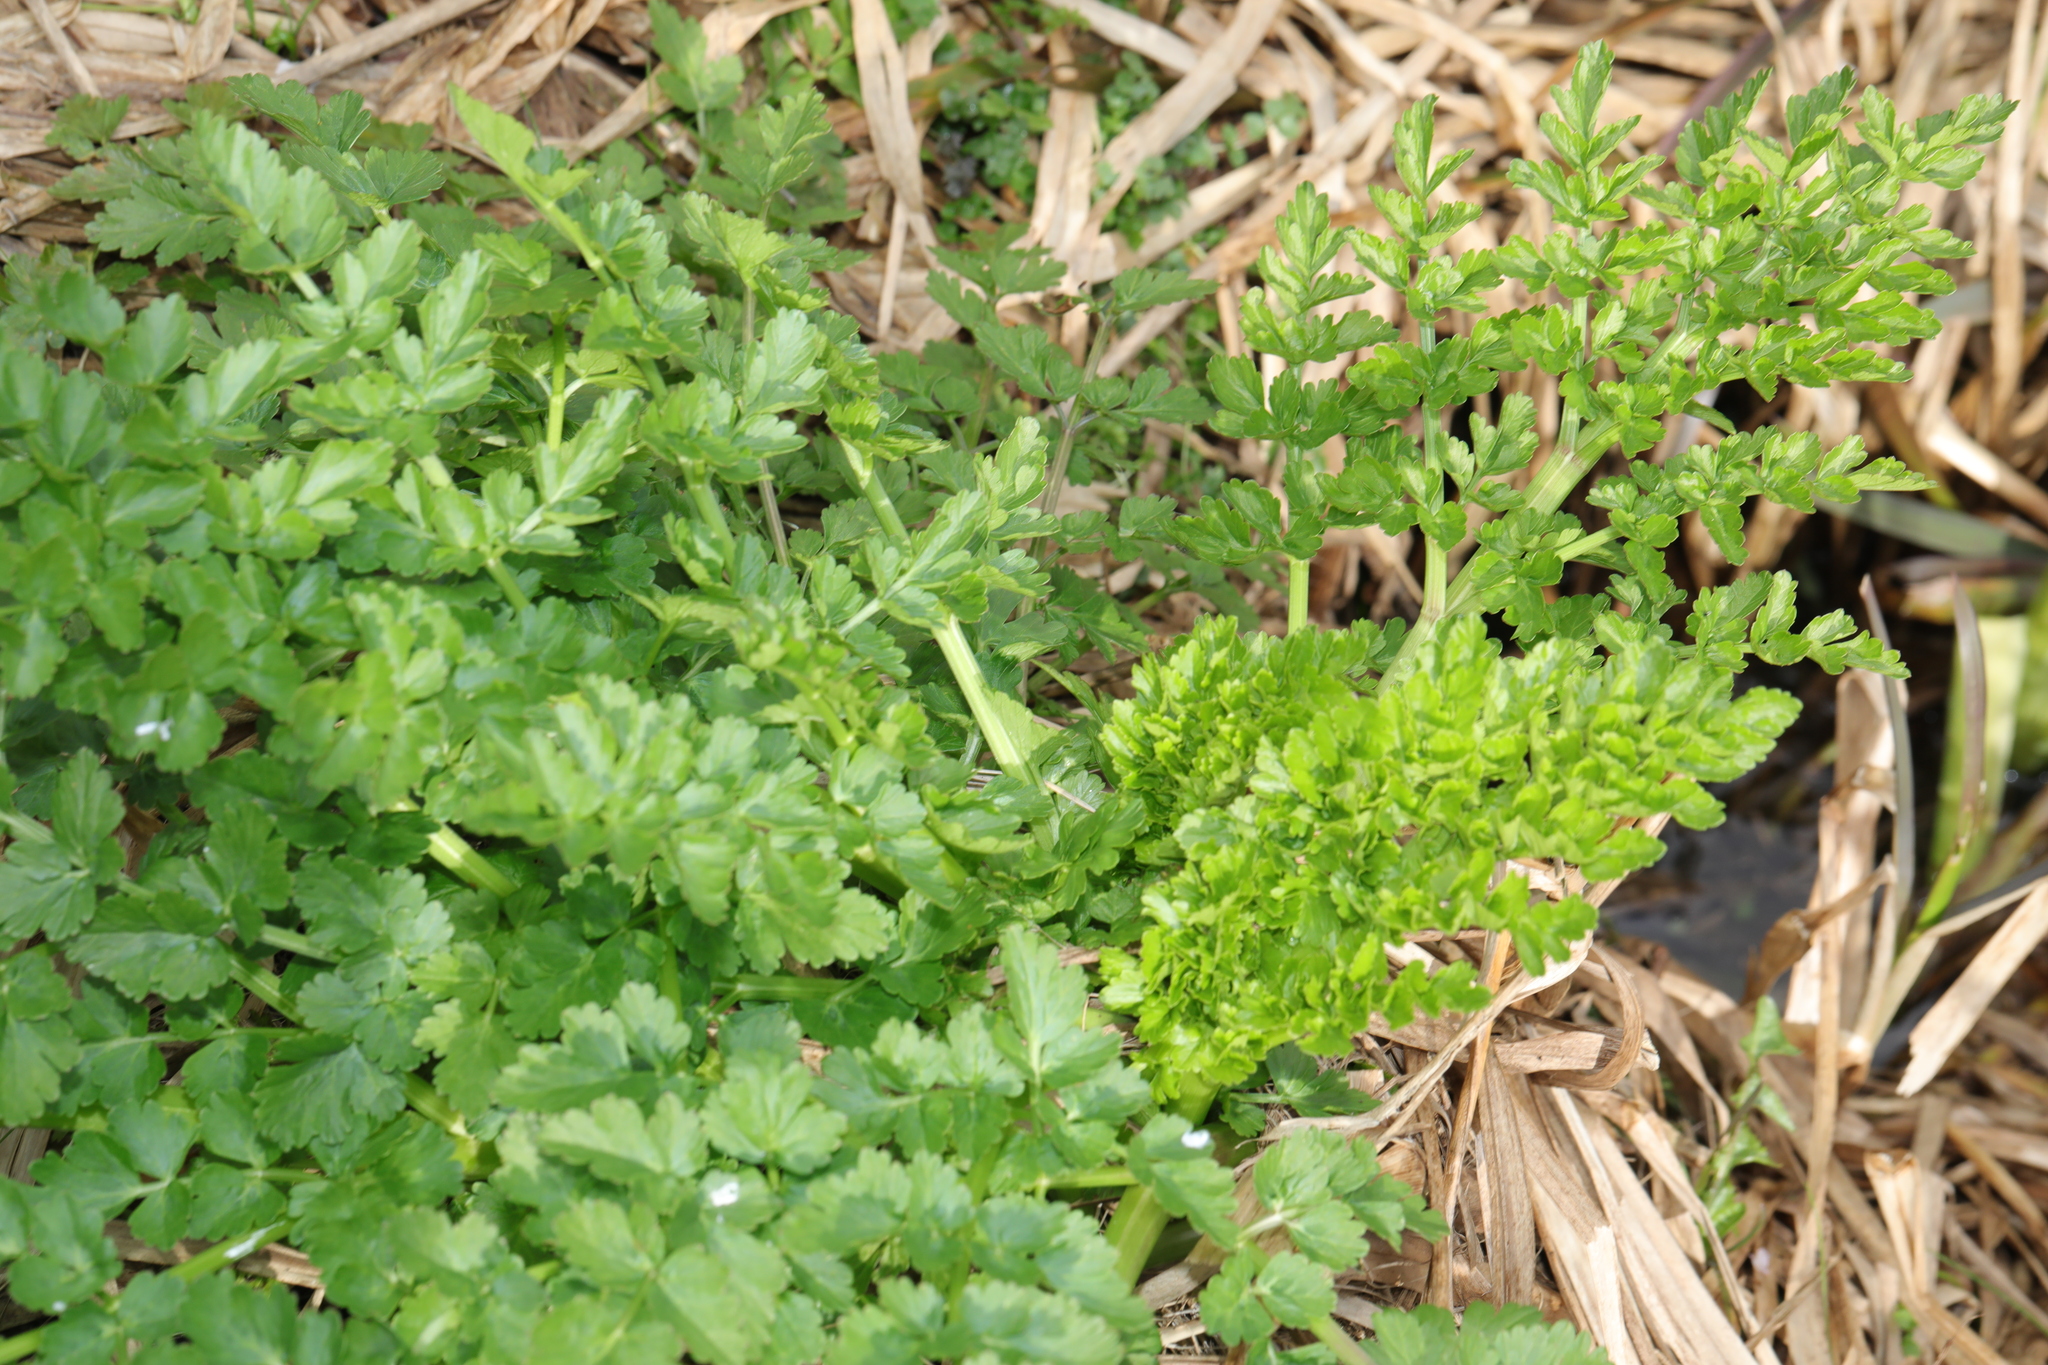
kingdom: Plantae
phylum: Tracheophyta
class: Magnoliopsida
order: Apiales
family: Apiaceae
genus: Oenanthe
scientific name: Oenanthe crocata
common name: Hemlock water-dropwort
